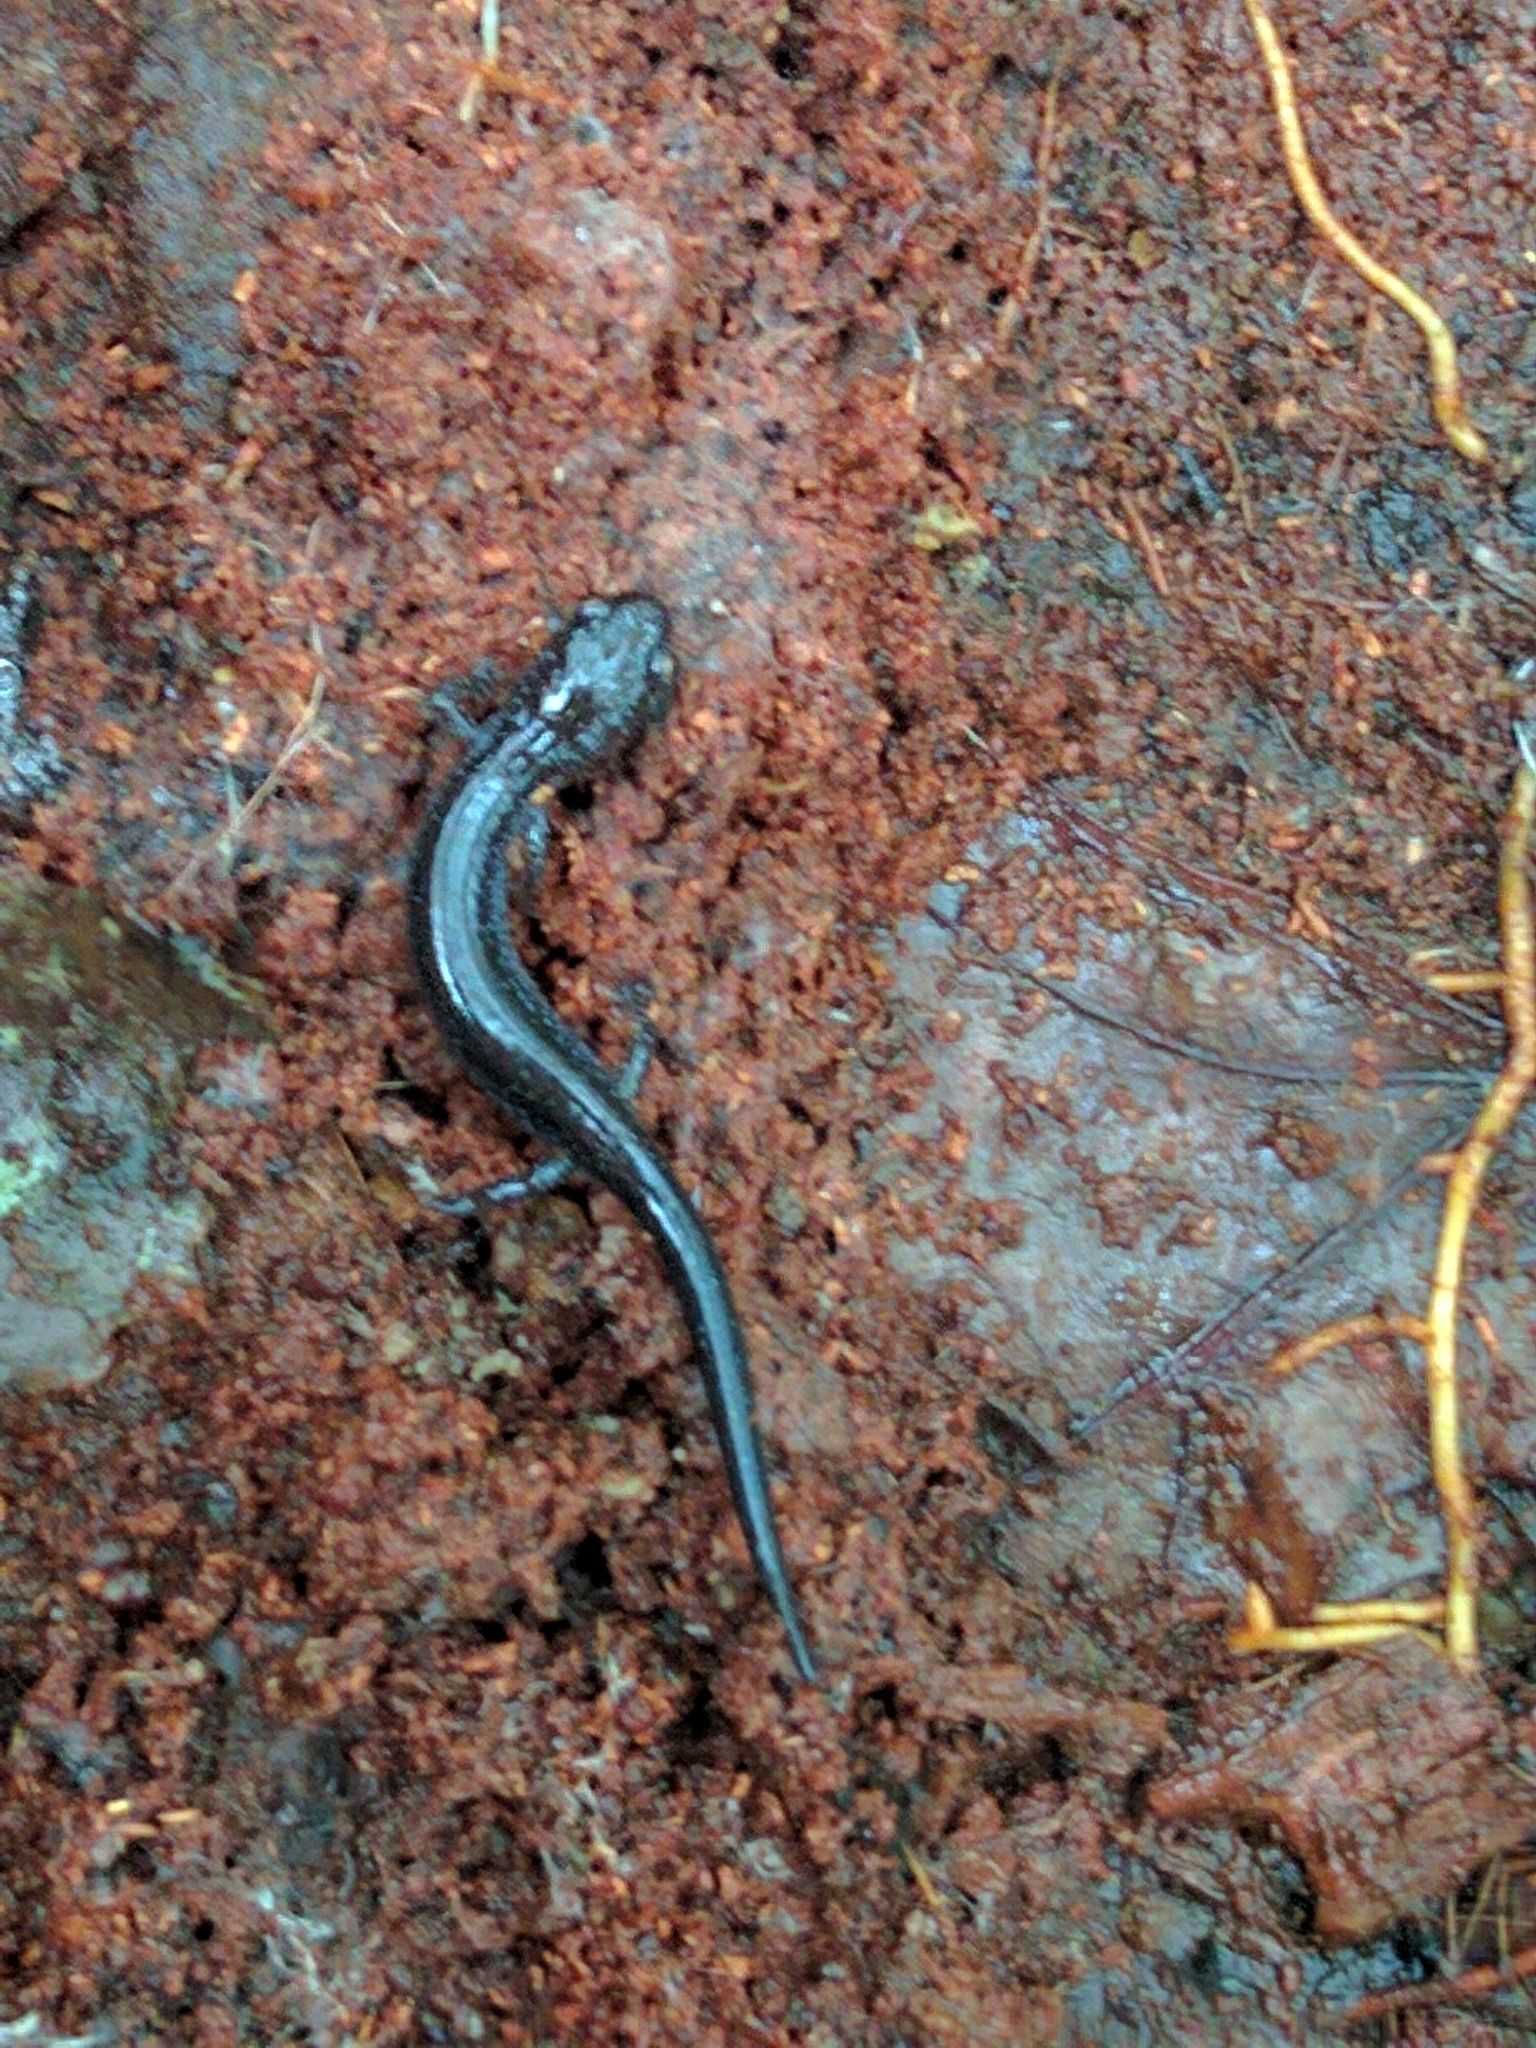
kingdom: Animalia
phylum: Chordata
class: Amphibia
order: Caudata
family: Plethodontidae
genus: Plethodon
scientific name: Plethodon cinereus
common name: Redback salamander
